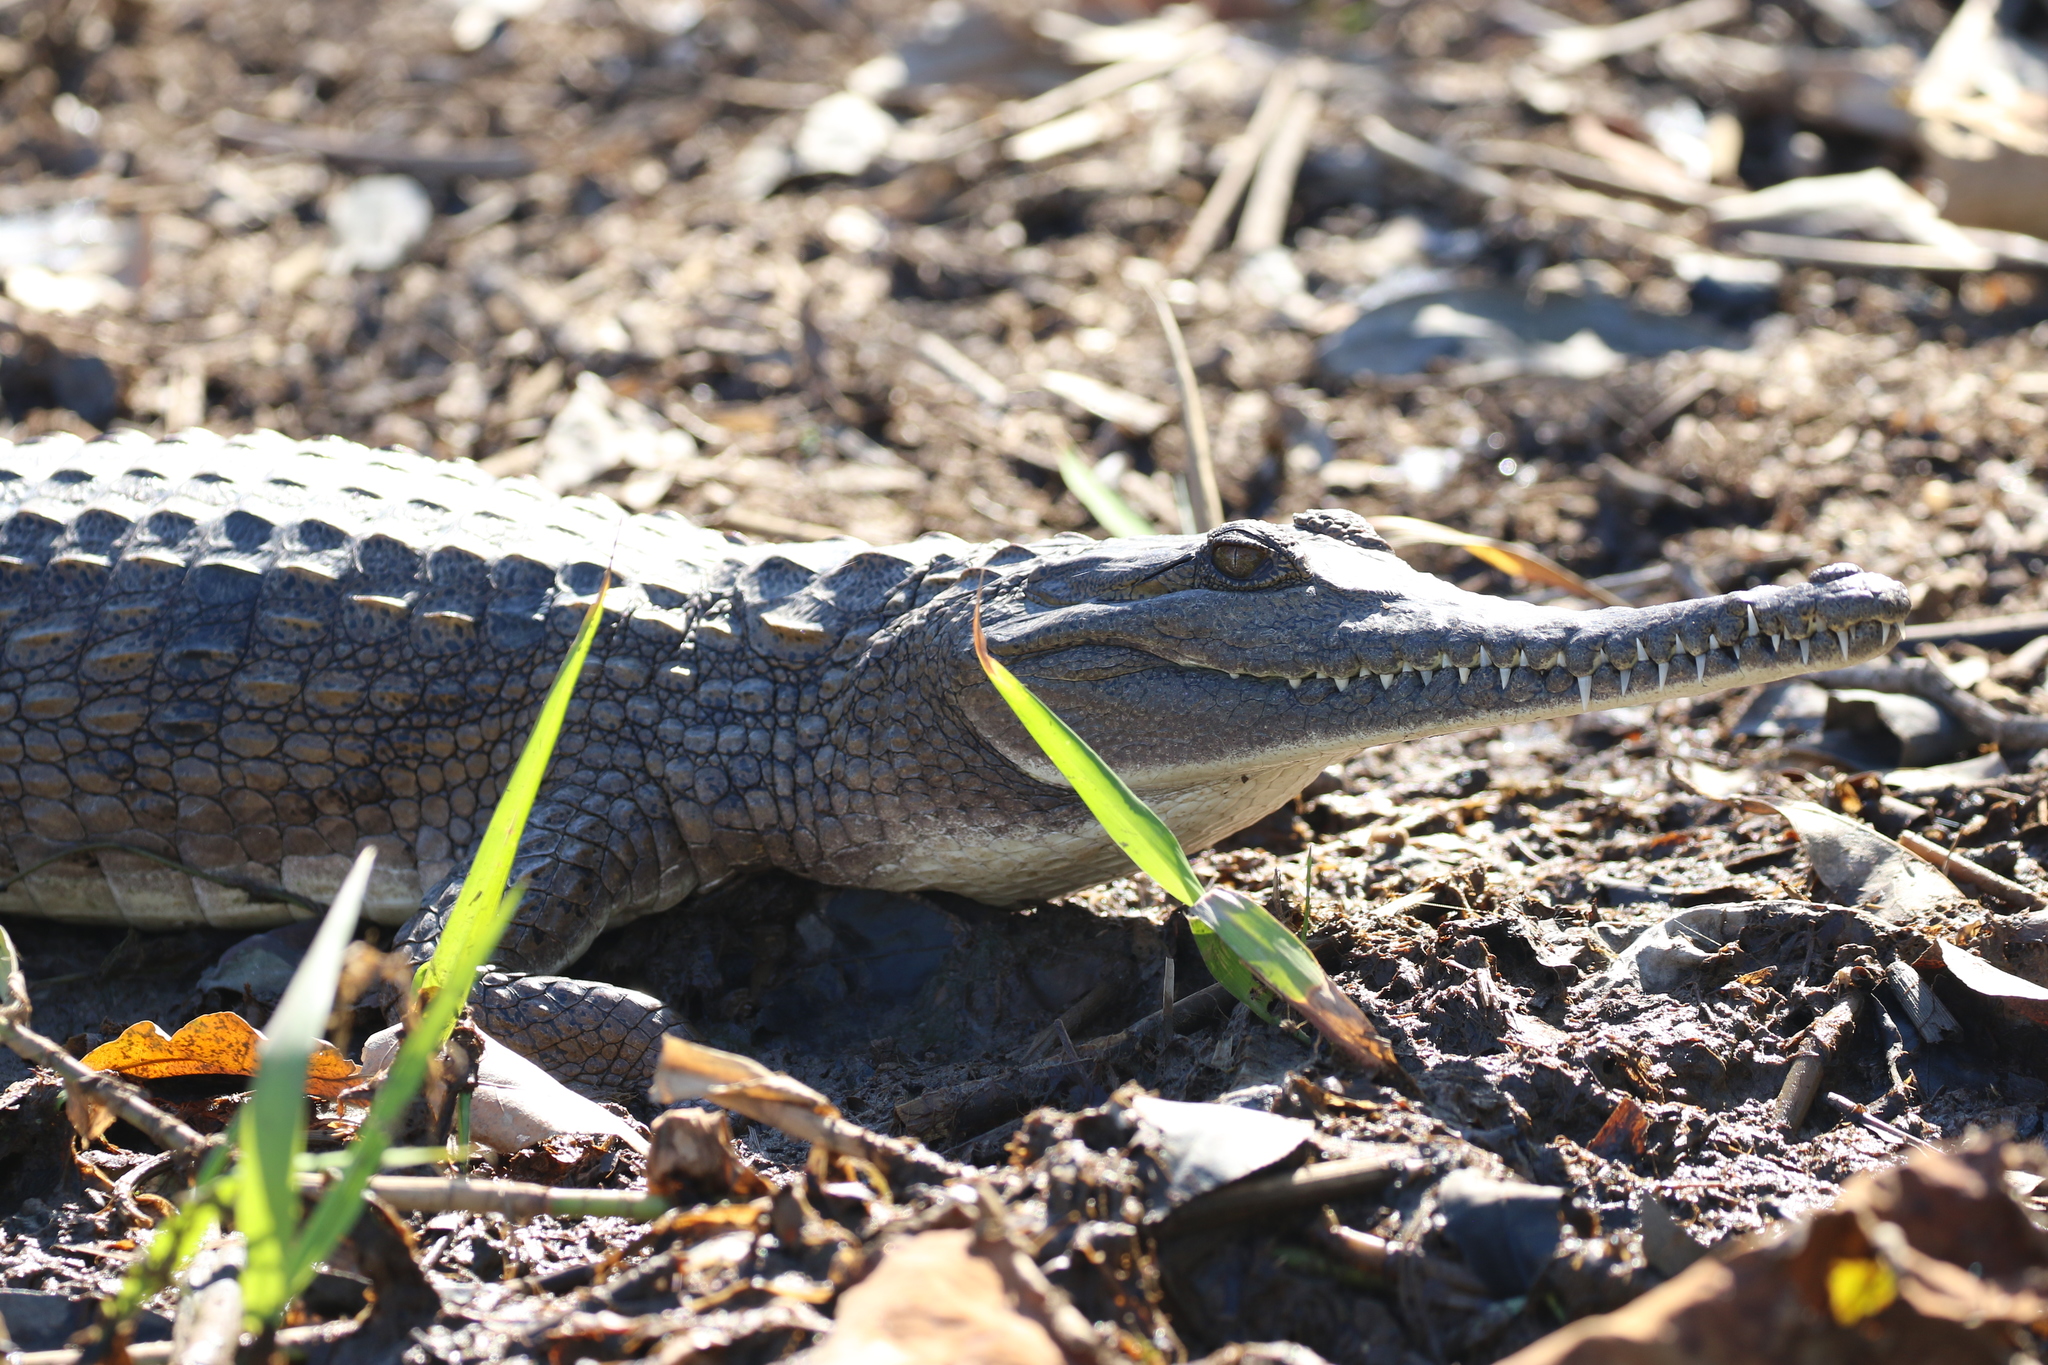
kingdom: Animalia
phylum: Chordata
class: Crocodylia
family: Crocodylidae
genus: Crocodylus
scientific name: Crocodylus johnsoni
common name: Freshwater crocodile
